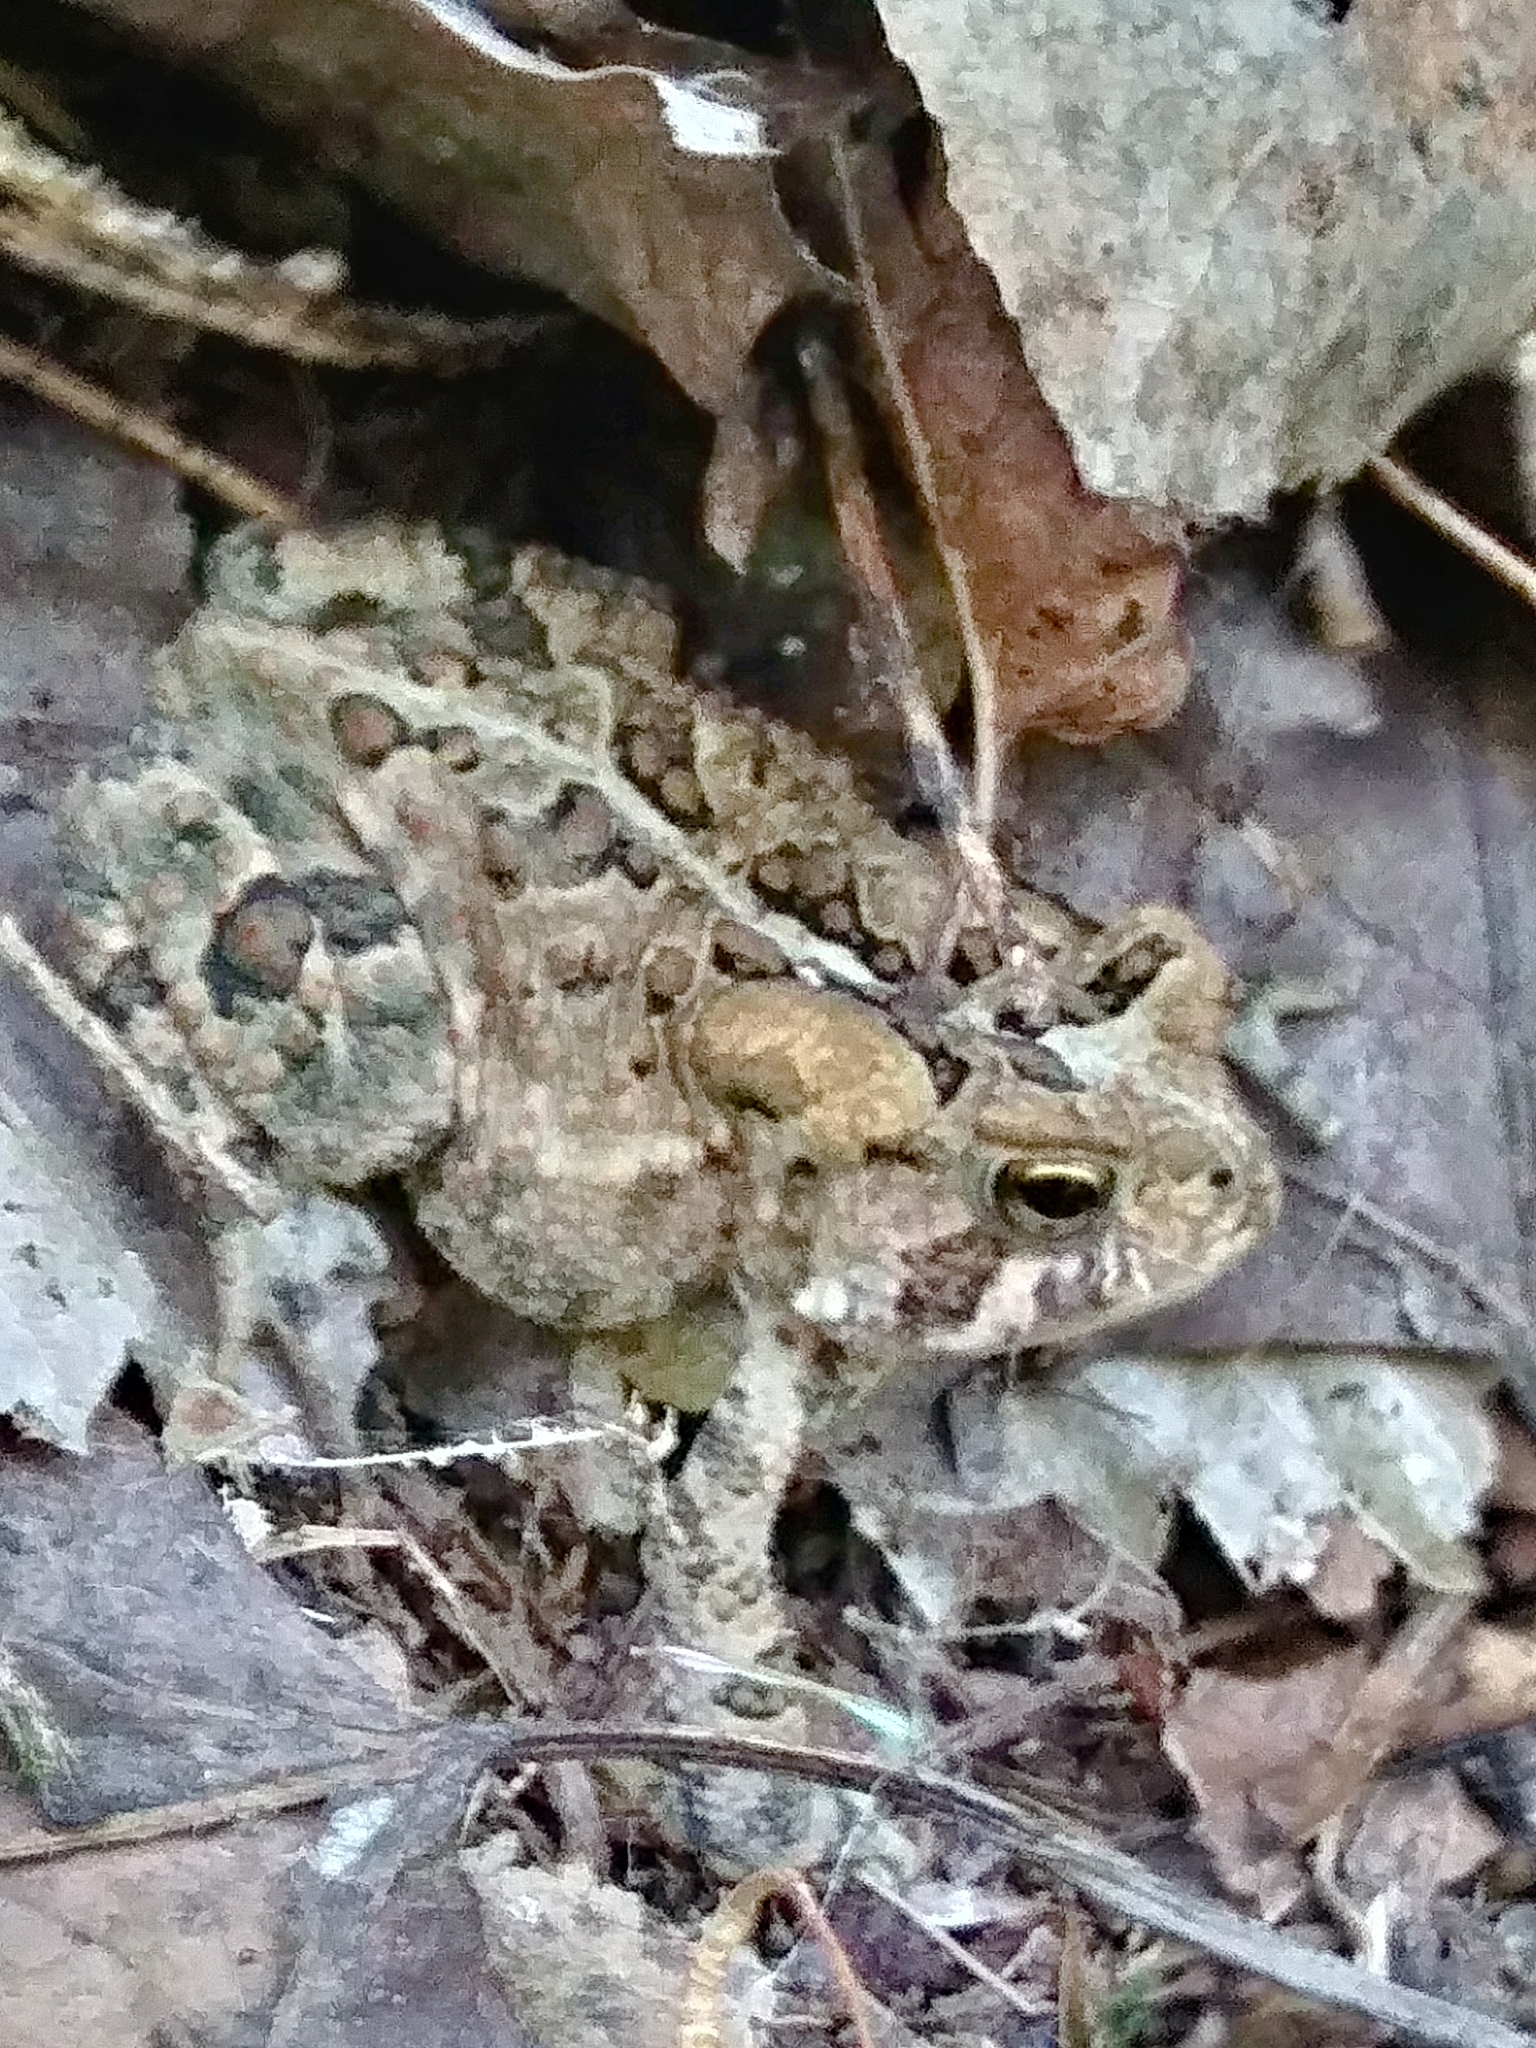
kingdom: Animalia
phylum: Chordata
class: Amphibia
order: Anura
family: Bufonidae
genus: Anaxyrus
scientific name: Anaxyrus americanus
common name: American toad
